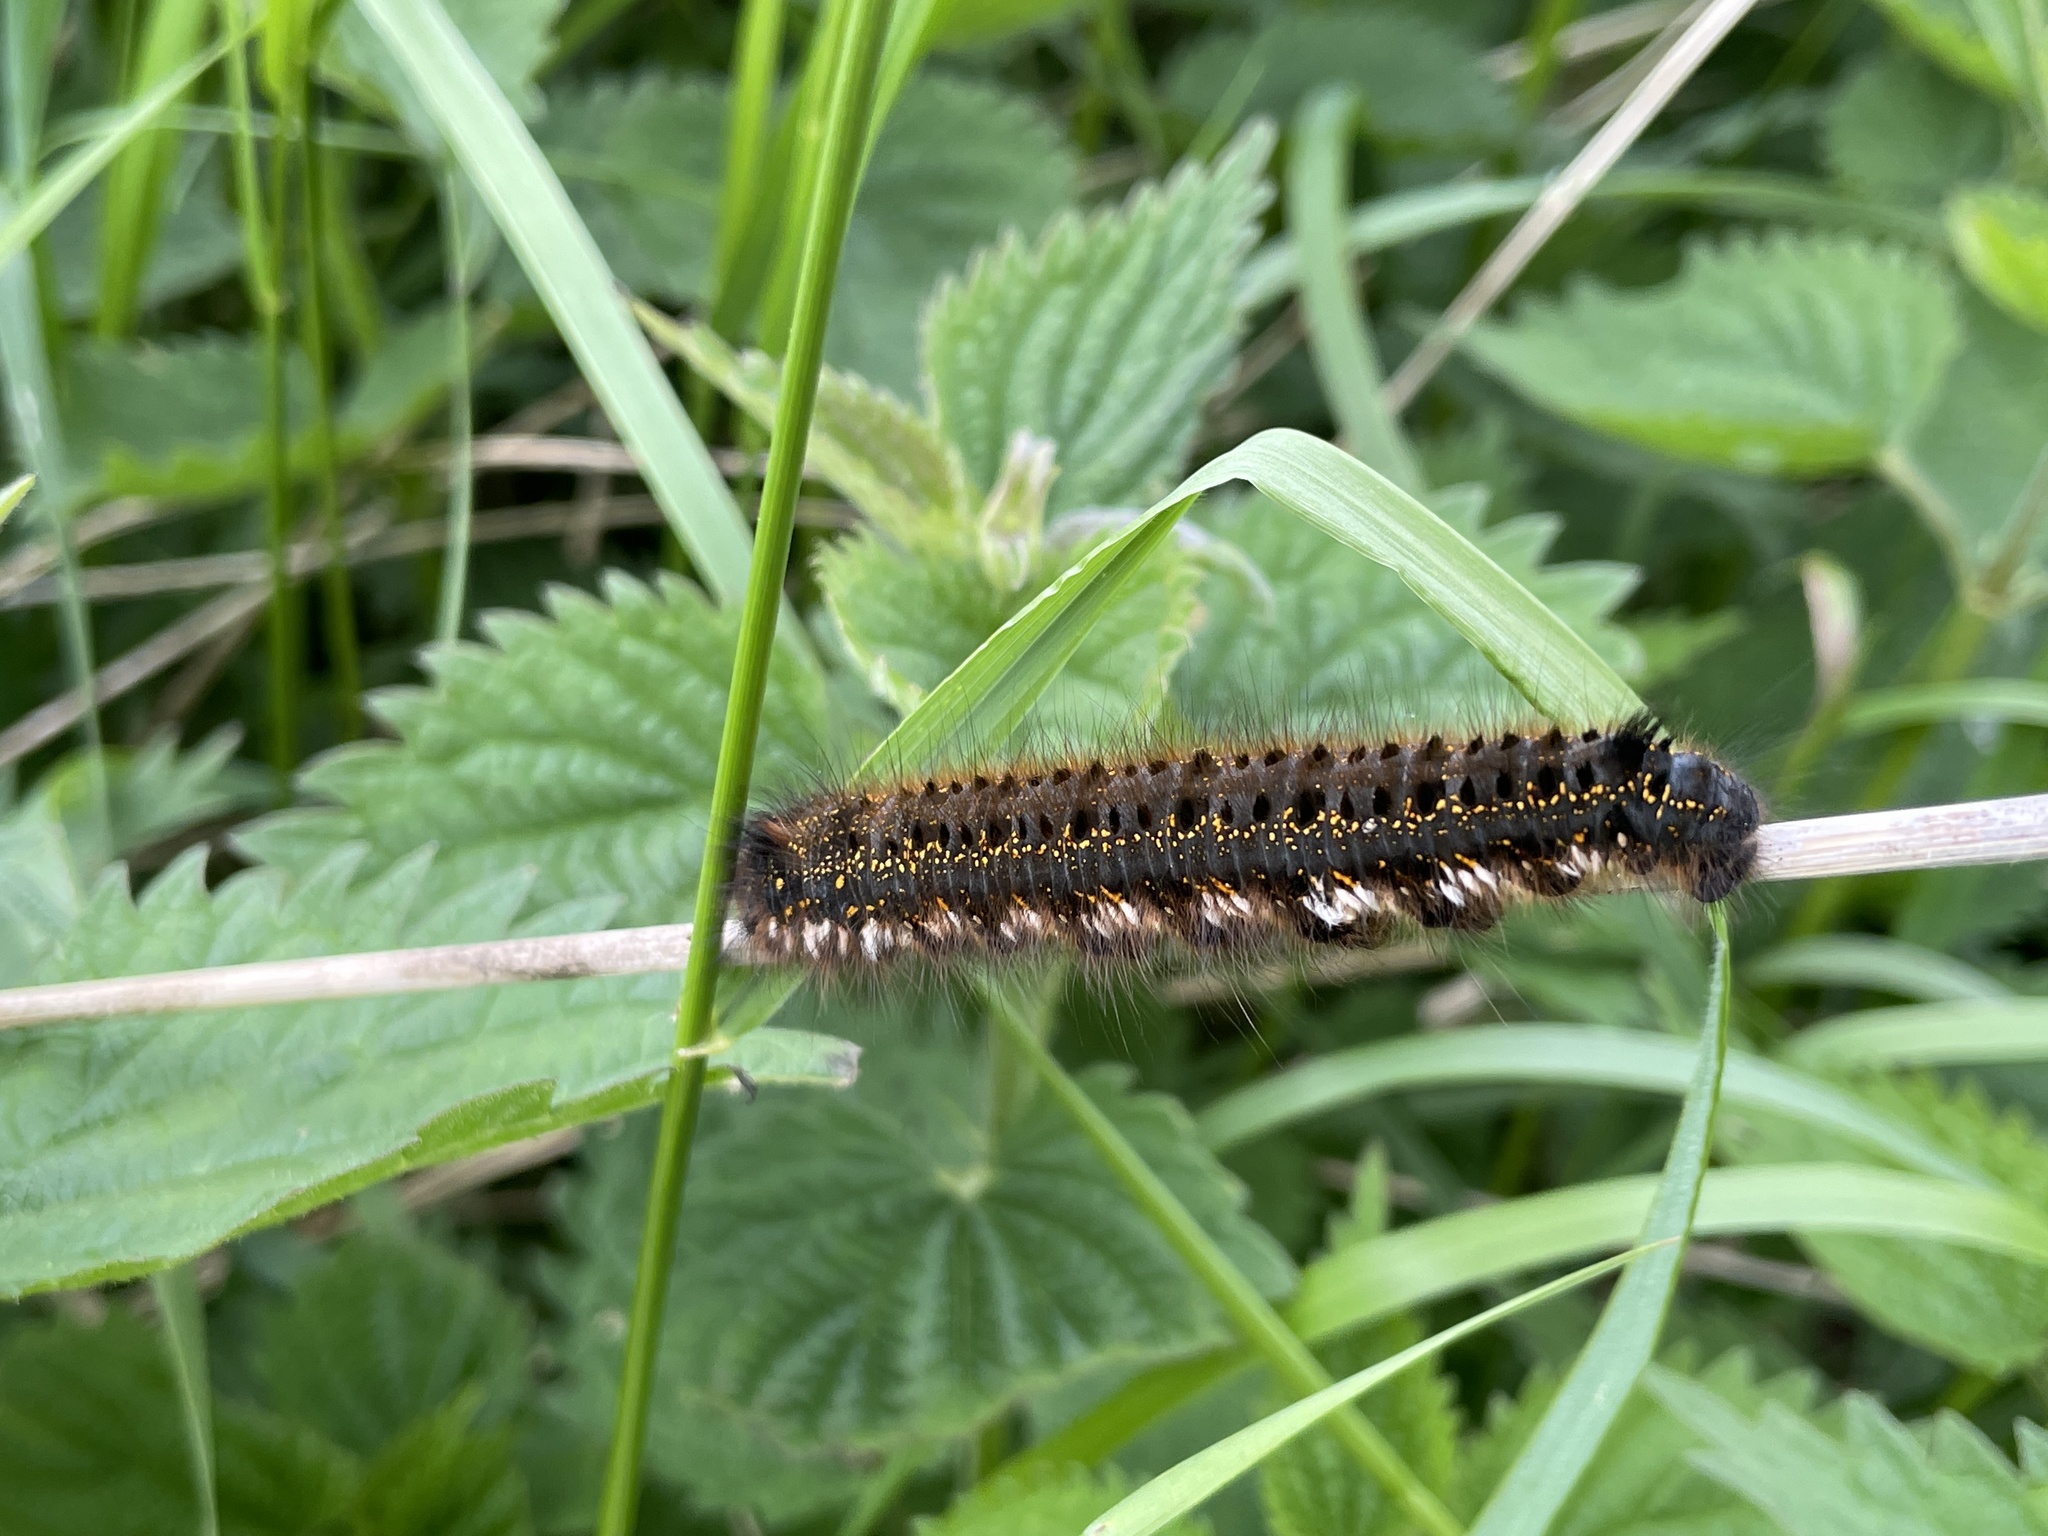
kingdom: Animalia
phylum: Arthropoda
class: Insecta
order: Lepidoptera
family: Lasiocampidae
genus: Euthrix
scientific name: Euthrix potatoria
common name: Drinker
